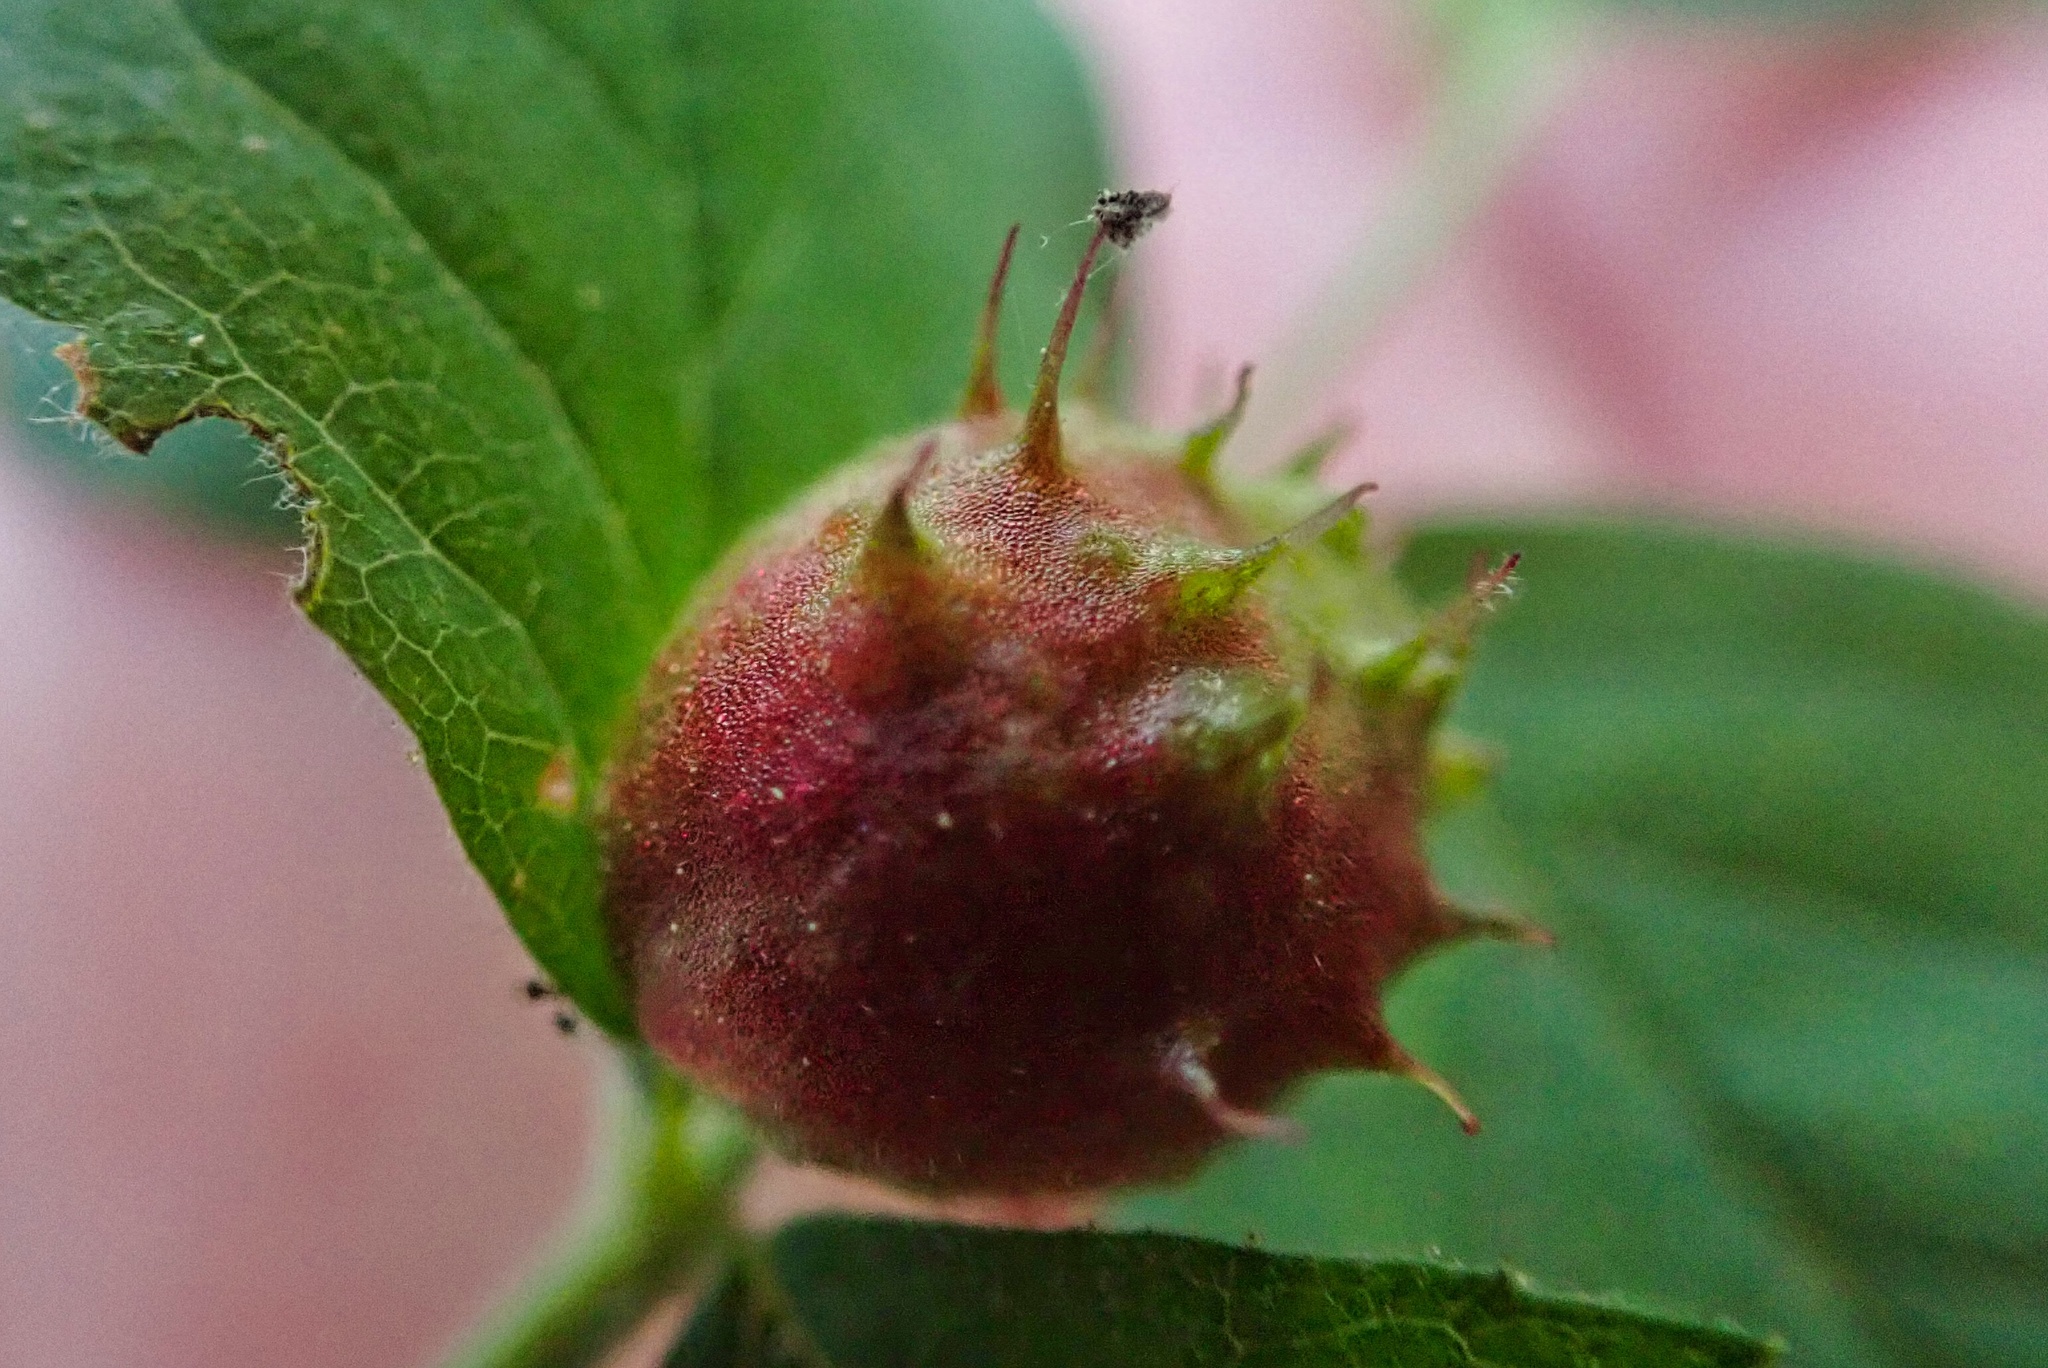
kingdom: Animalia
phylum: Arthropoda
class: Insecta
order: Hymenoptera
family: Cynipidae
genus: Diplolepis
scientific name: Diplolepis polita
